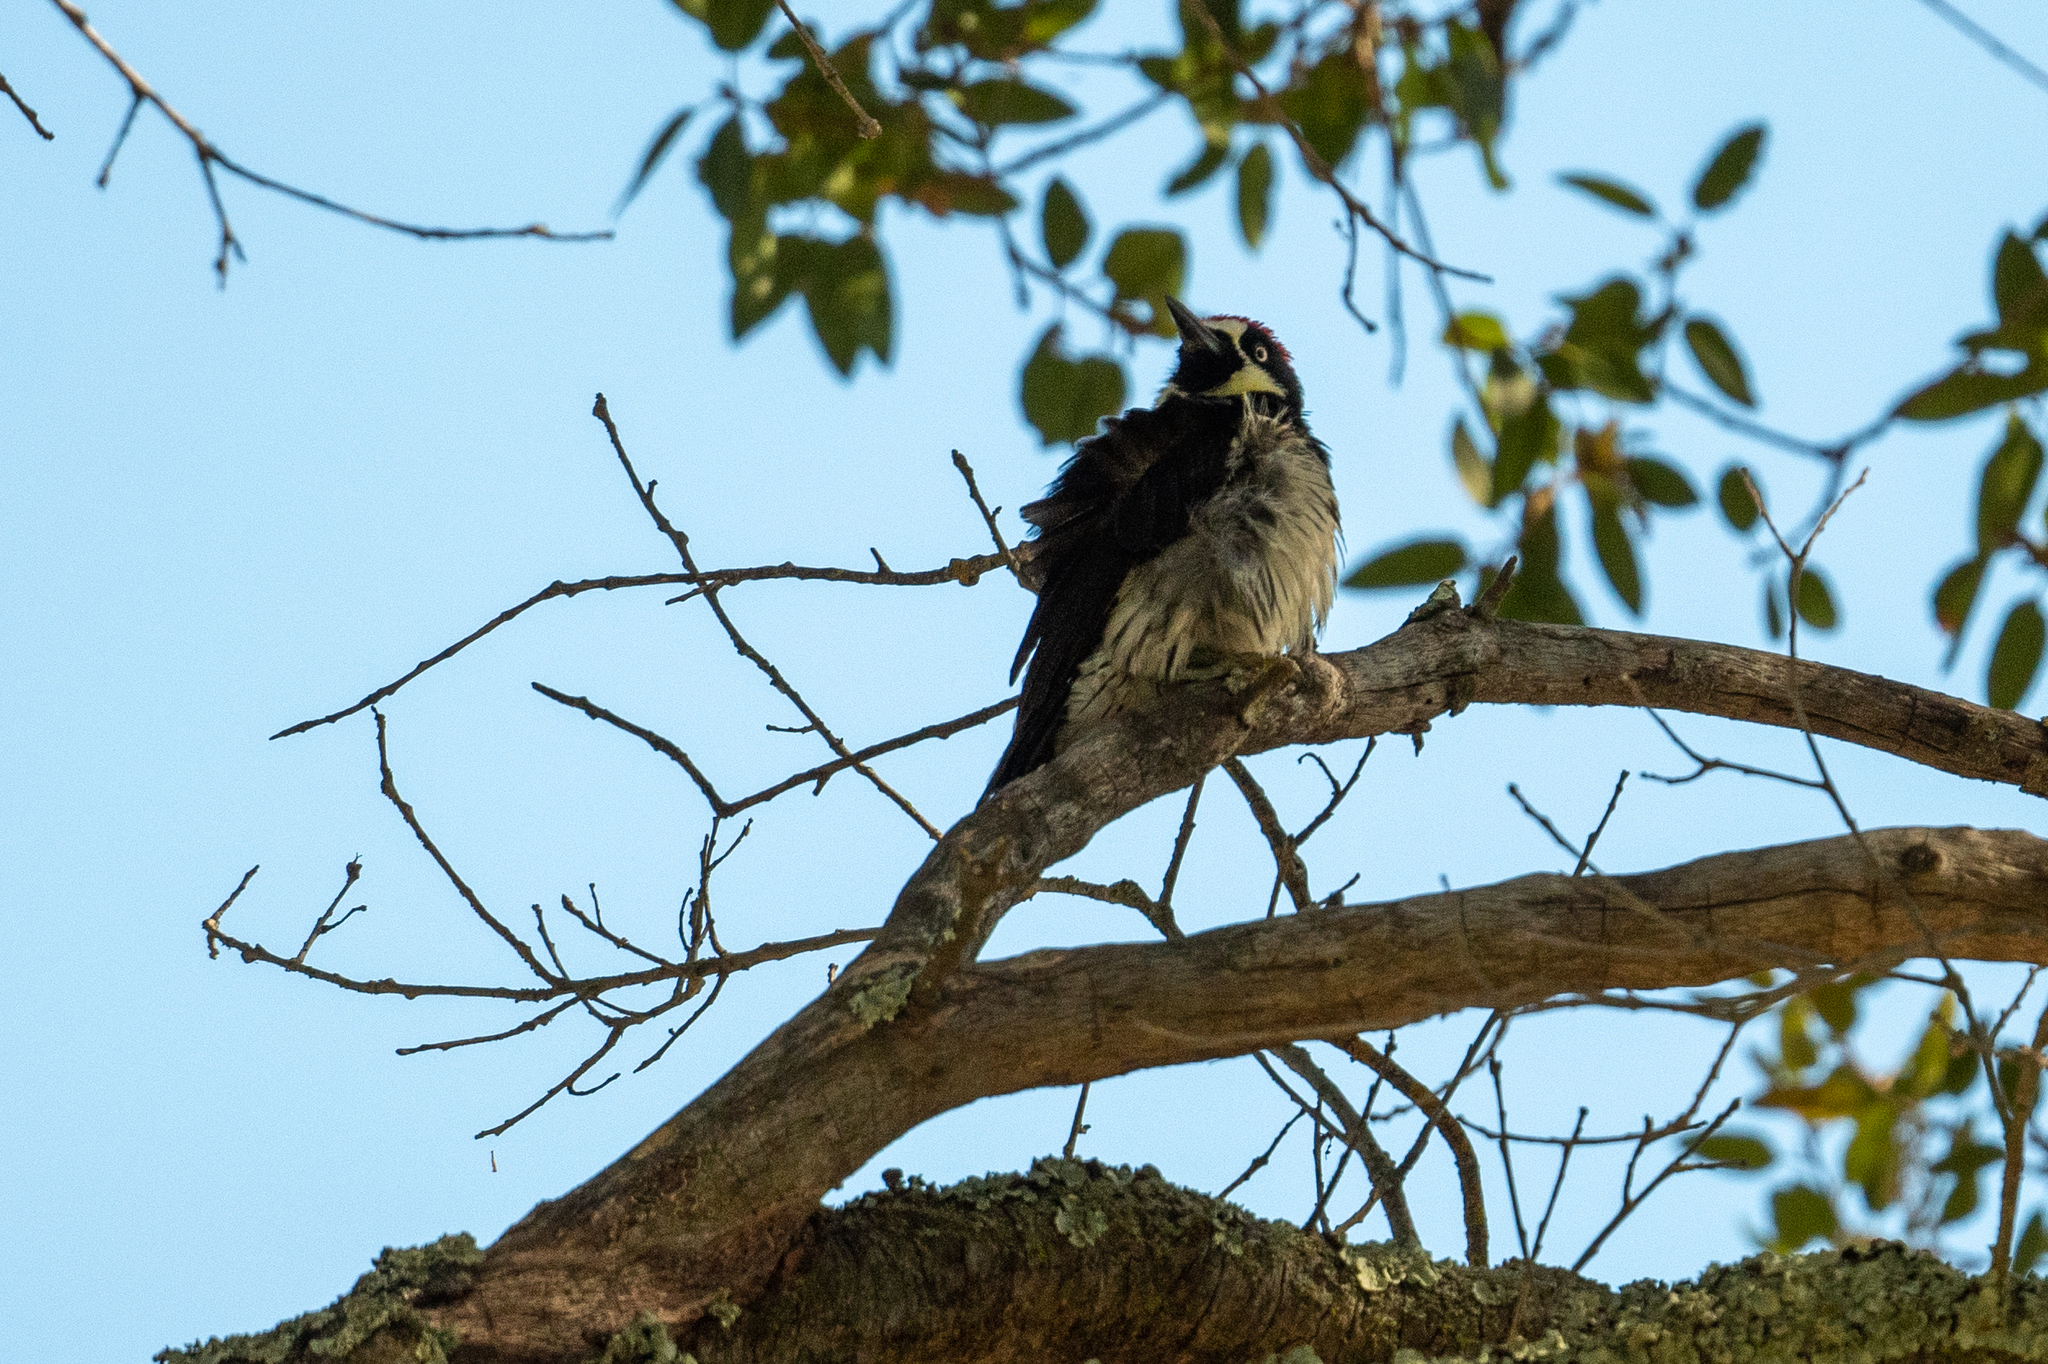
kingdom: Animalia
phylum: Chordata
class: Aves
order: Piciformes
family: Picidae
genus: Melanerpes
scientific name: Melanerpes formicivorus
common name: Acorn woodpecker
